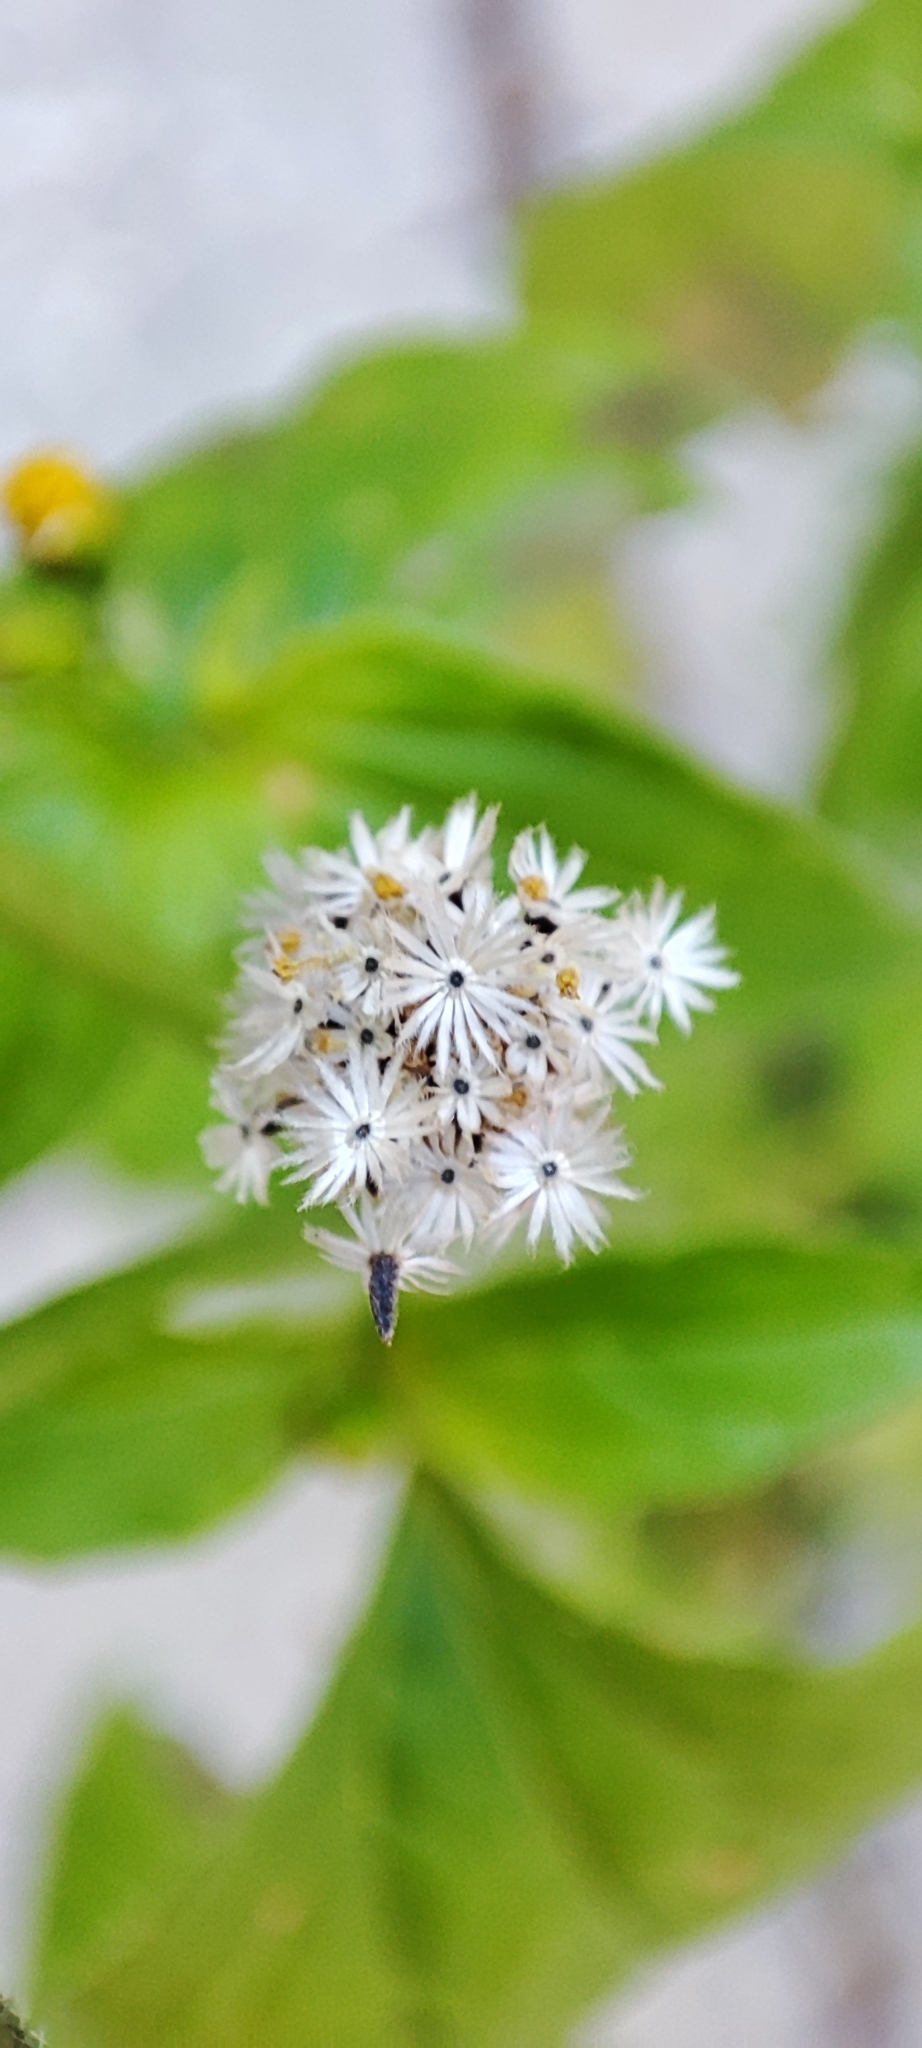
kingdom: Plantae
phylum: Tracheophyta
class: Magnoliopsida
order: Asterales
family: Asteraceae
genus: Galinsoga
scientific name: Galinsoga parviflora
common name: Gallant soldier
